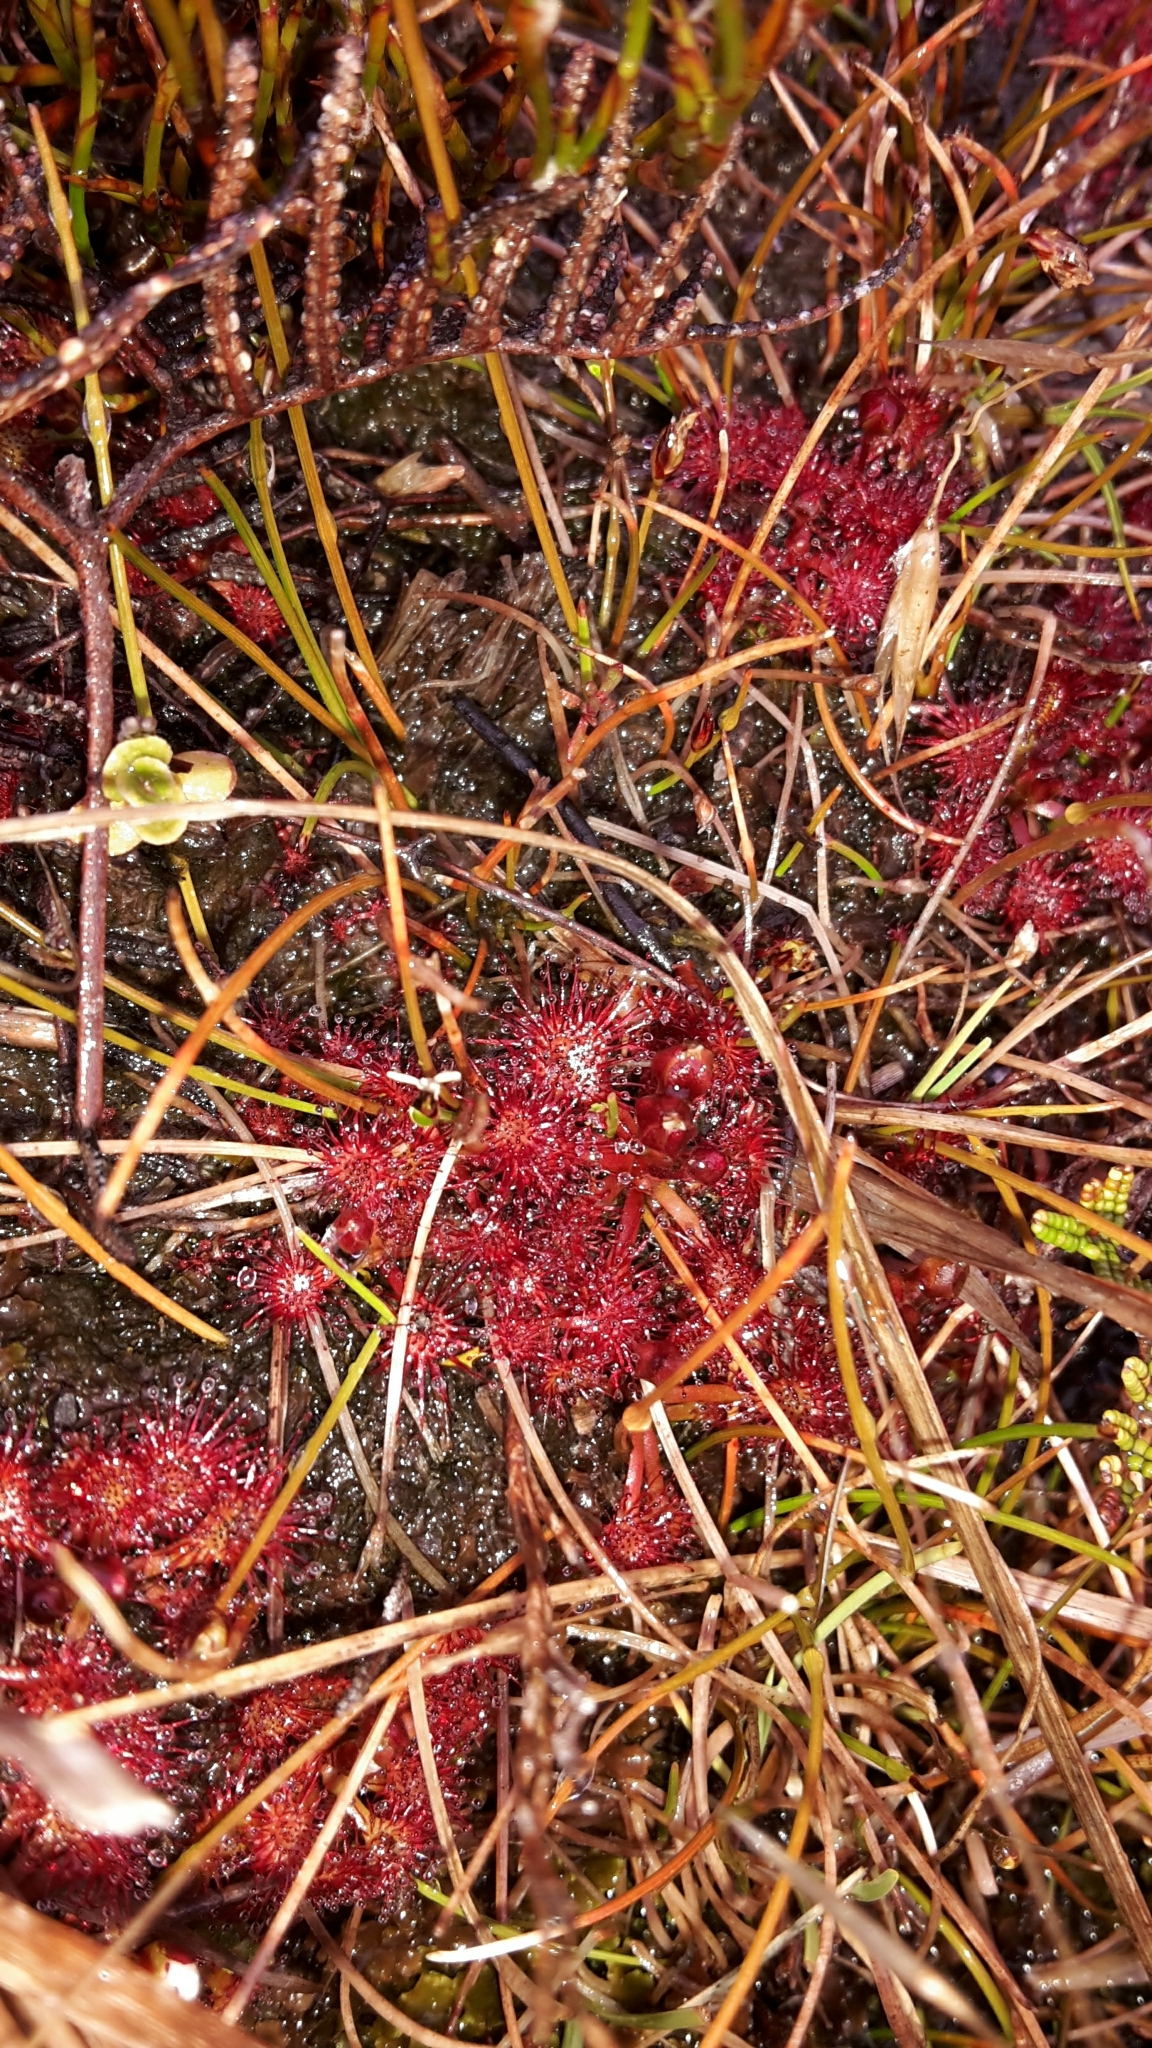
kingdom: Plantae
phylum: Tracheophyta
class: Magnoliopsida
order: Caryophyllales
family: Droseraceae
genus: Drosera
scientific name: Drosera spatulata
